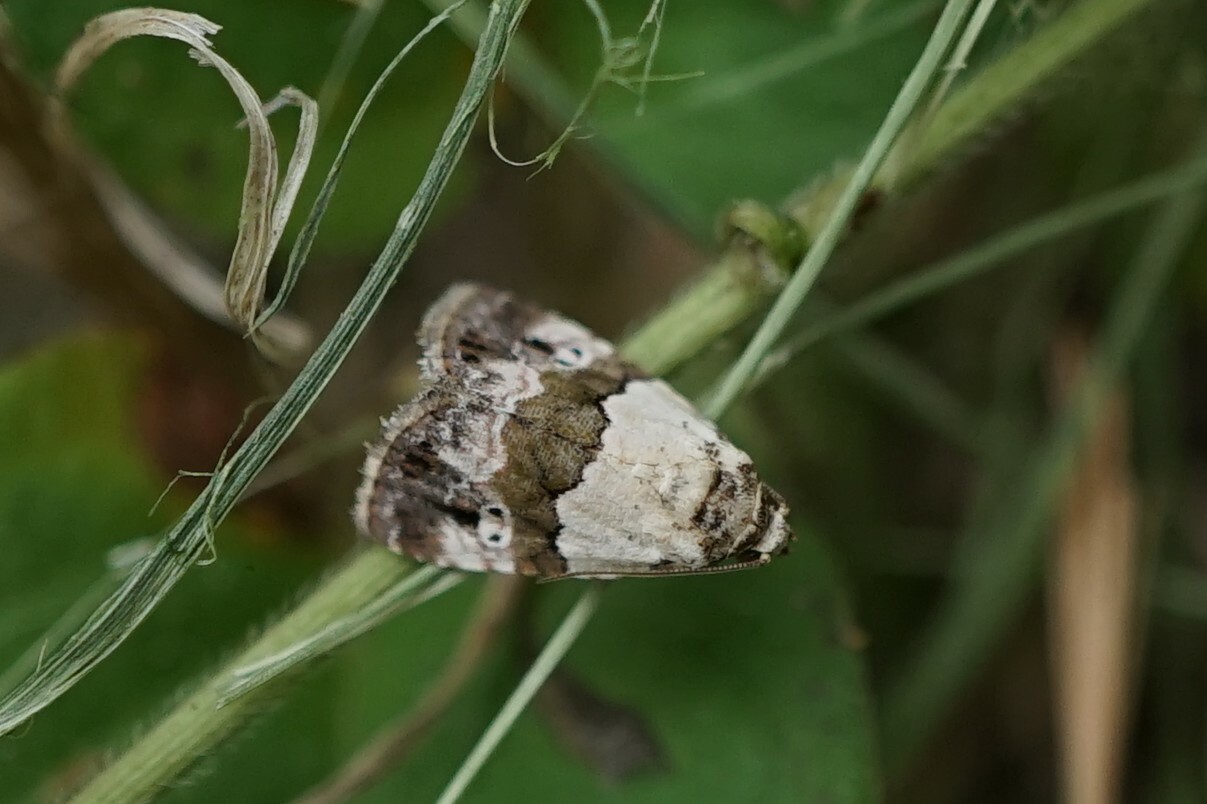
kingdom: Animalia
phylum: Arthropoda
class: Insecta
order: Lepidoptera
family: Noctuidae
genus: Maliattha
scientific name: Maliattha signifera
